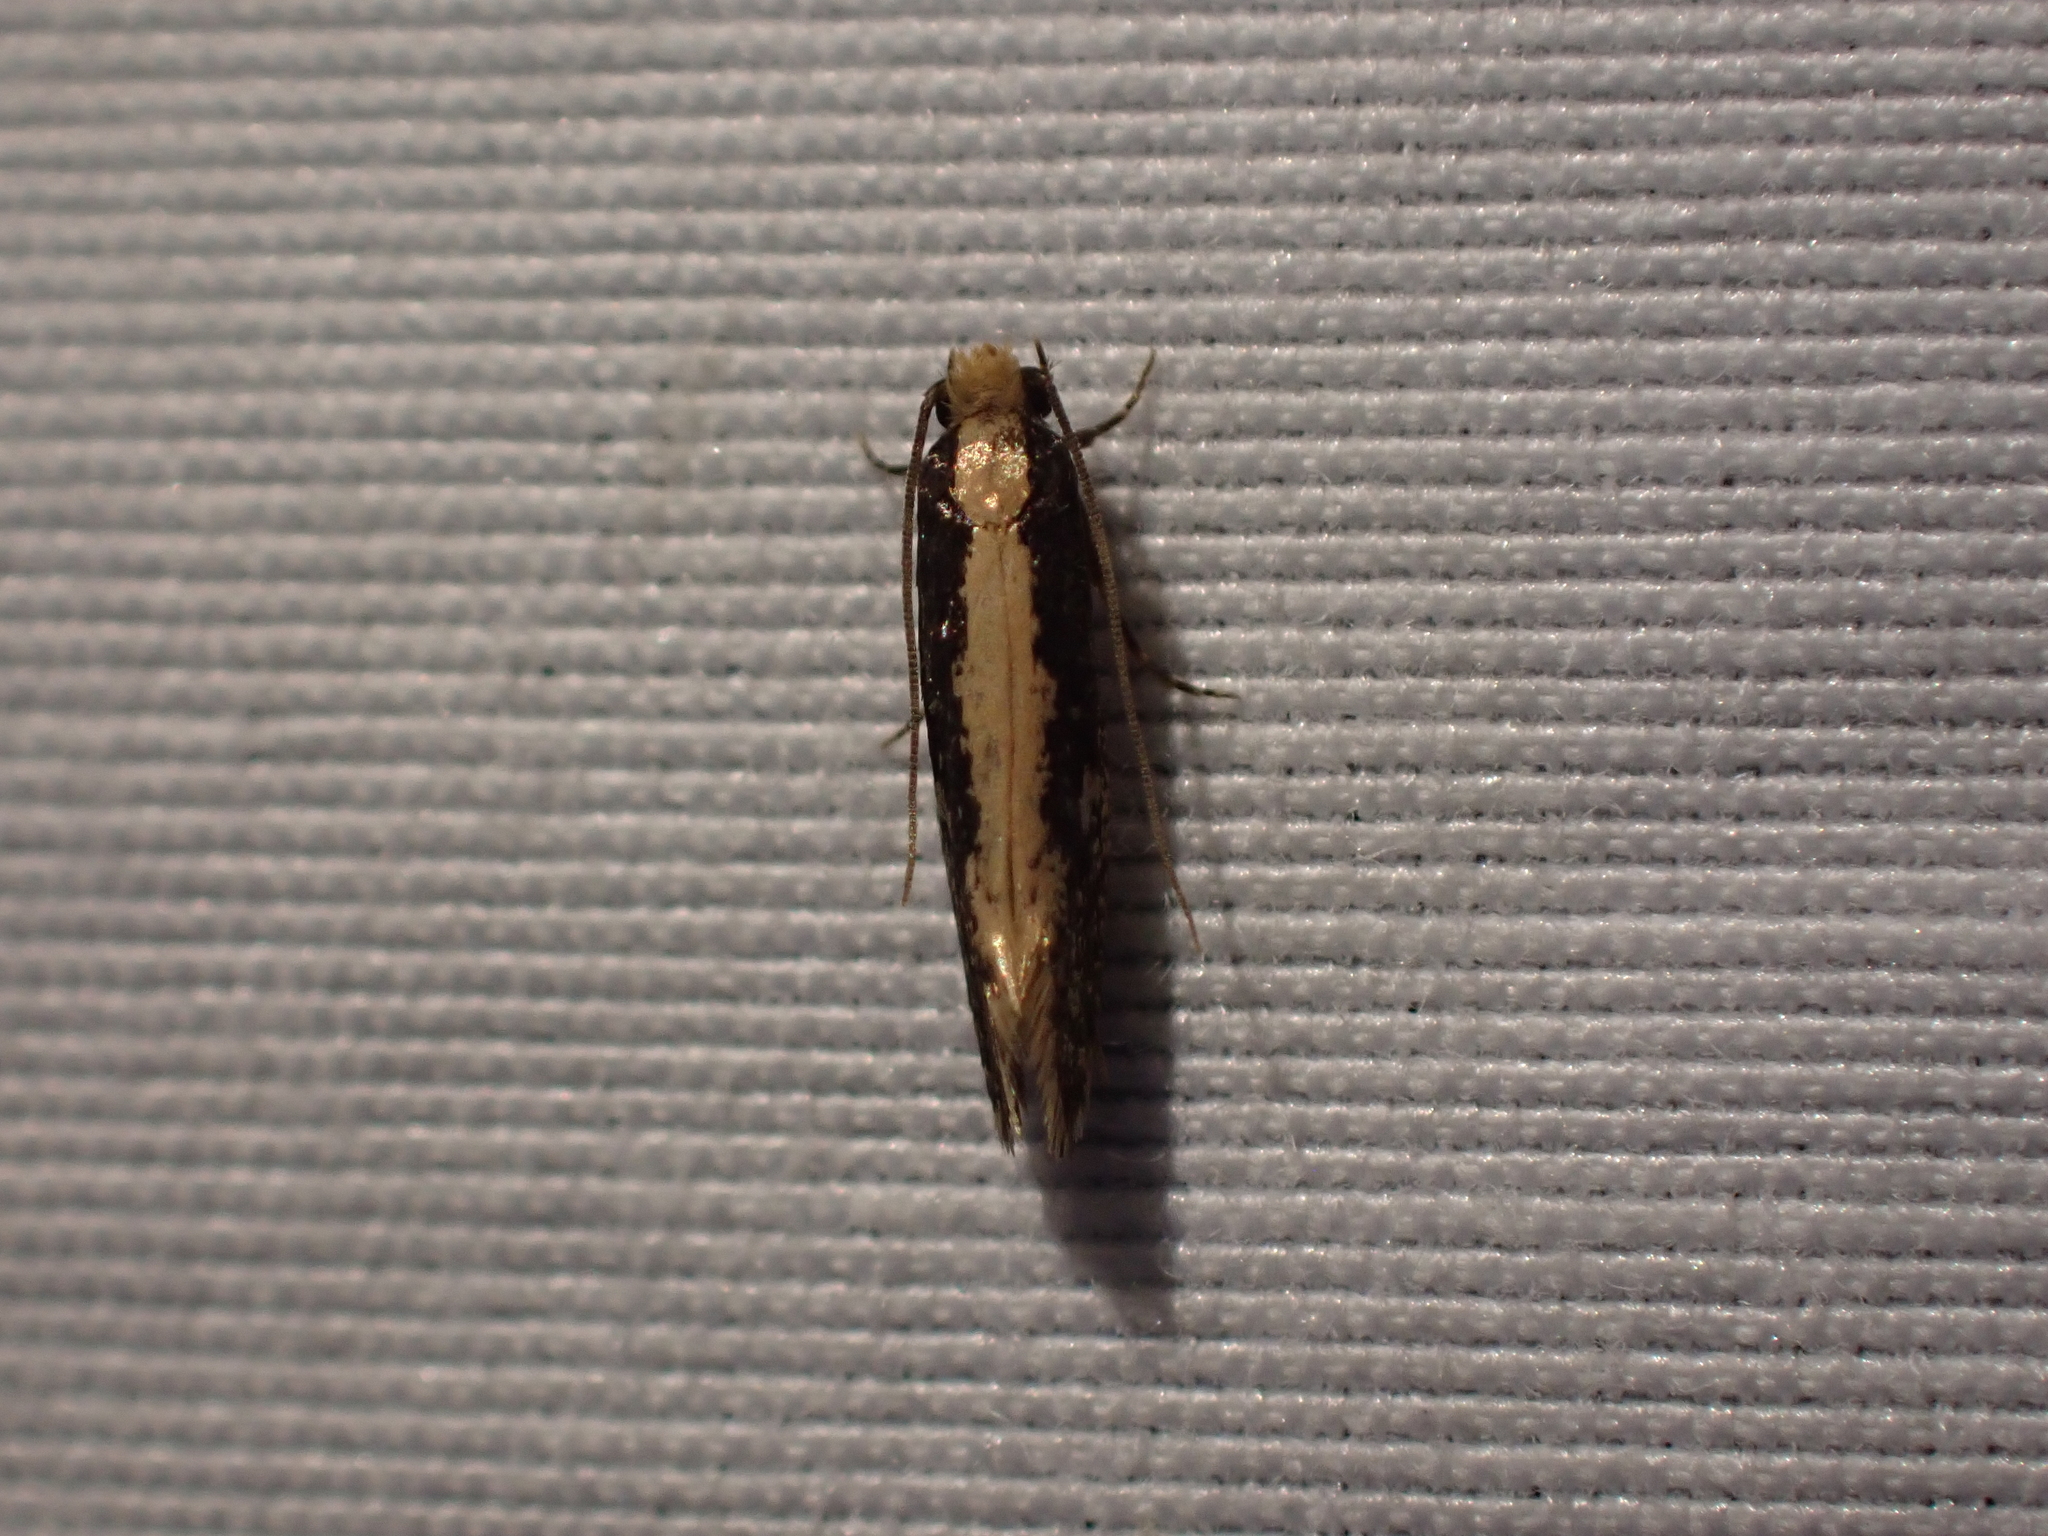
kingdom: Animalia
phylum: Arthropoda
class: Insecta
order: Lepidoptera
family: Tineidae
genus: Monopis
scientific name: Monopis crocicapitella
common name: Moth
